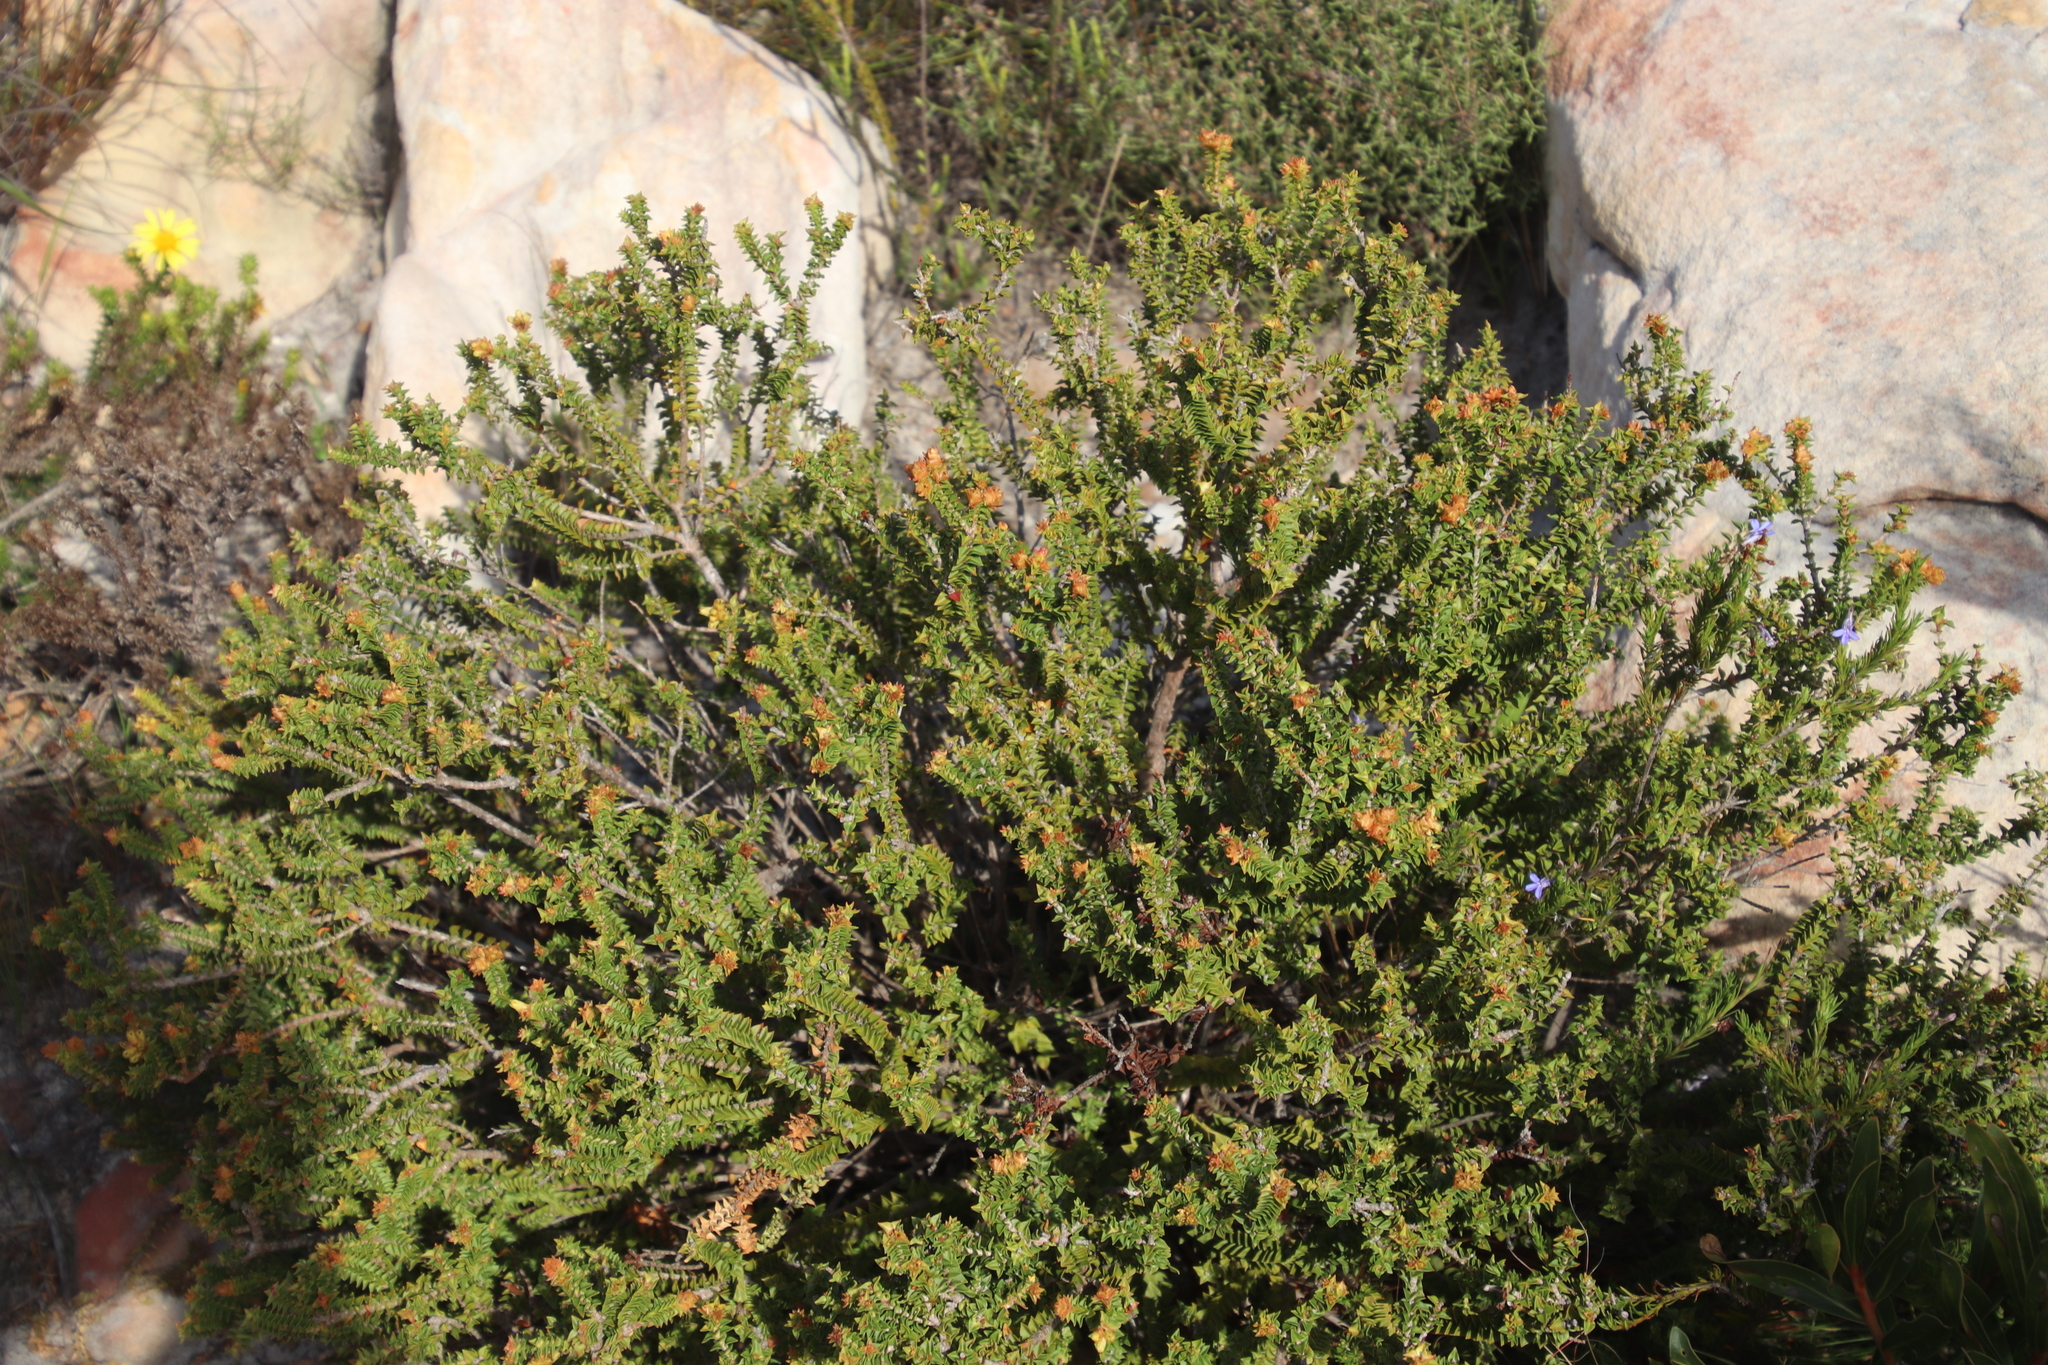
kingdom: Plantae
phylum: Tracheophyta
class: Magnoliopsida
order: Myrtales
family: Penaeaceae
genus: Penaea
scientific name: Penaea mucronata
